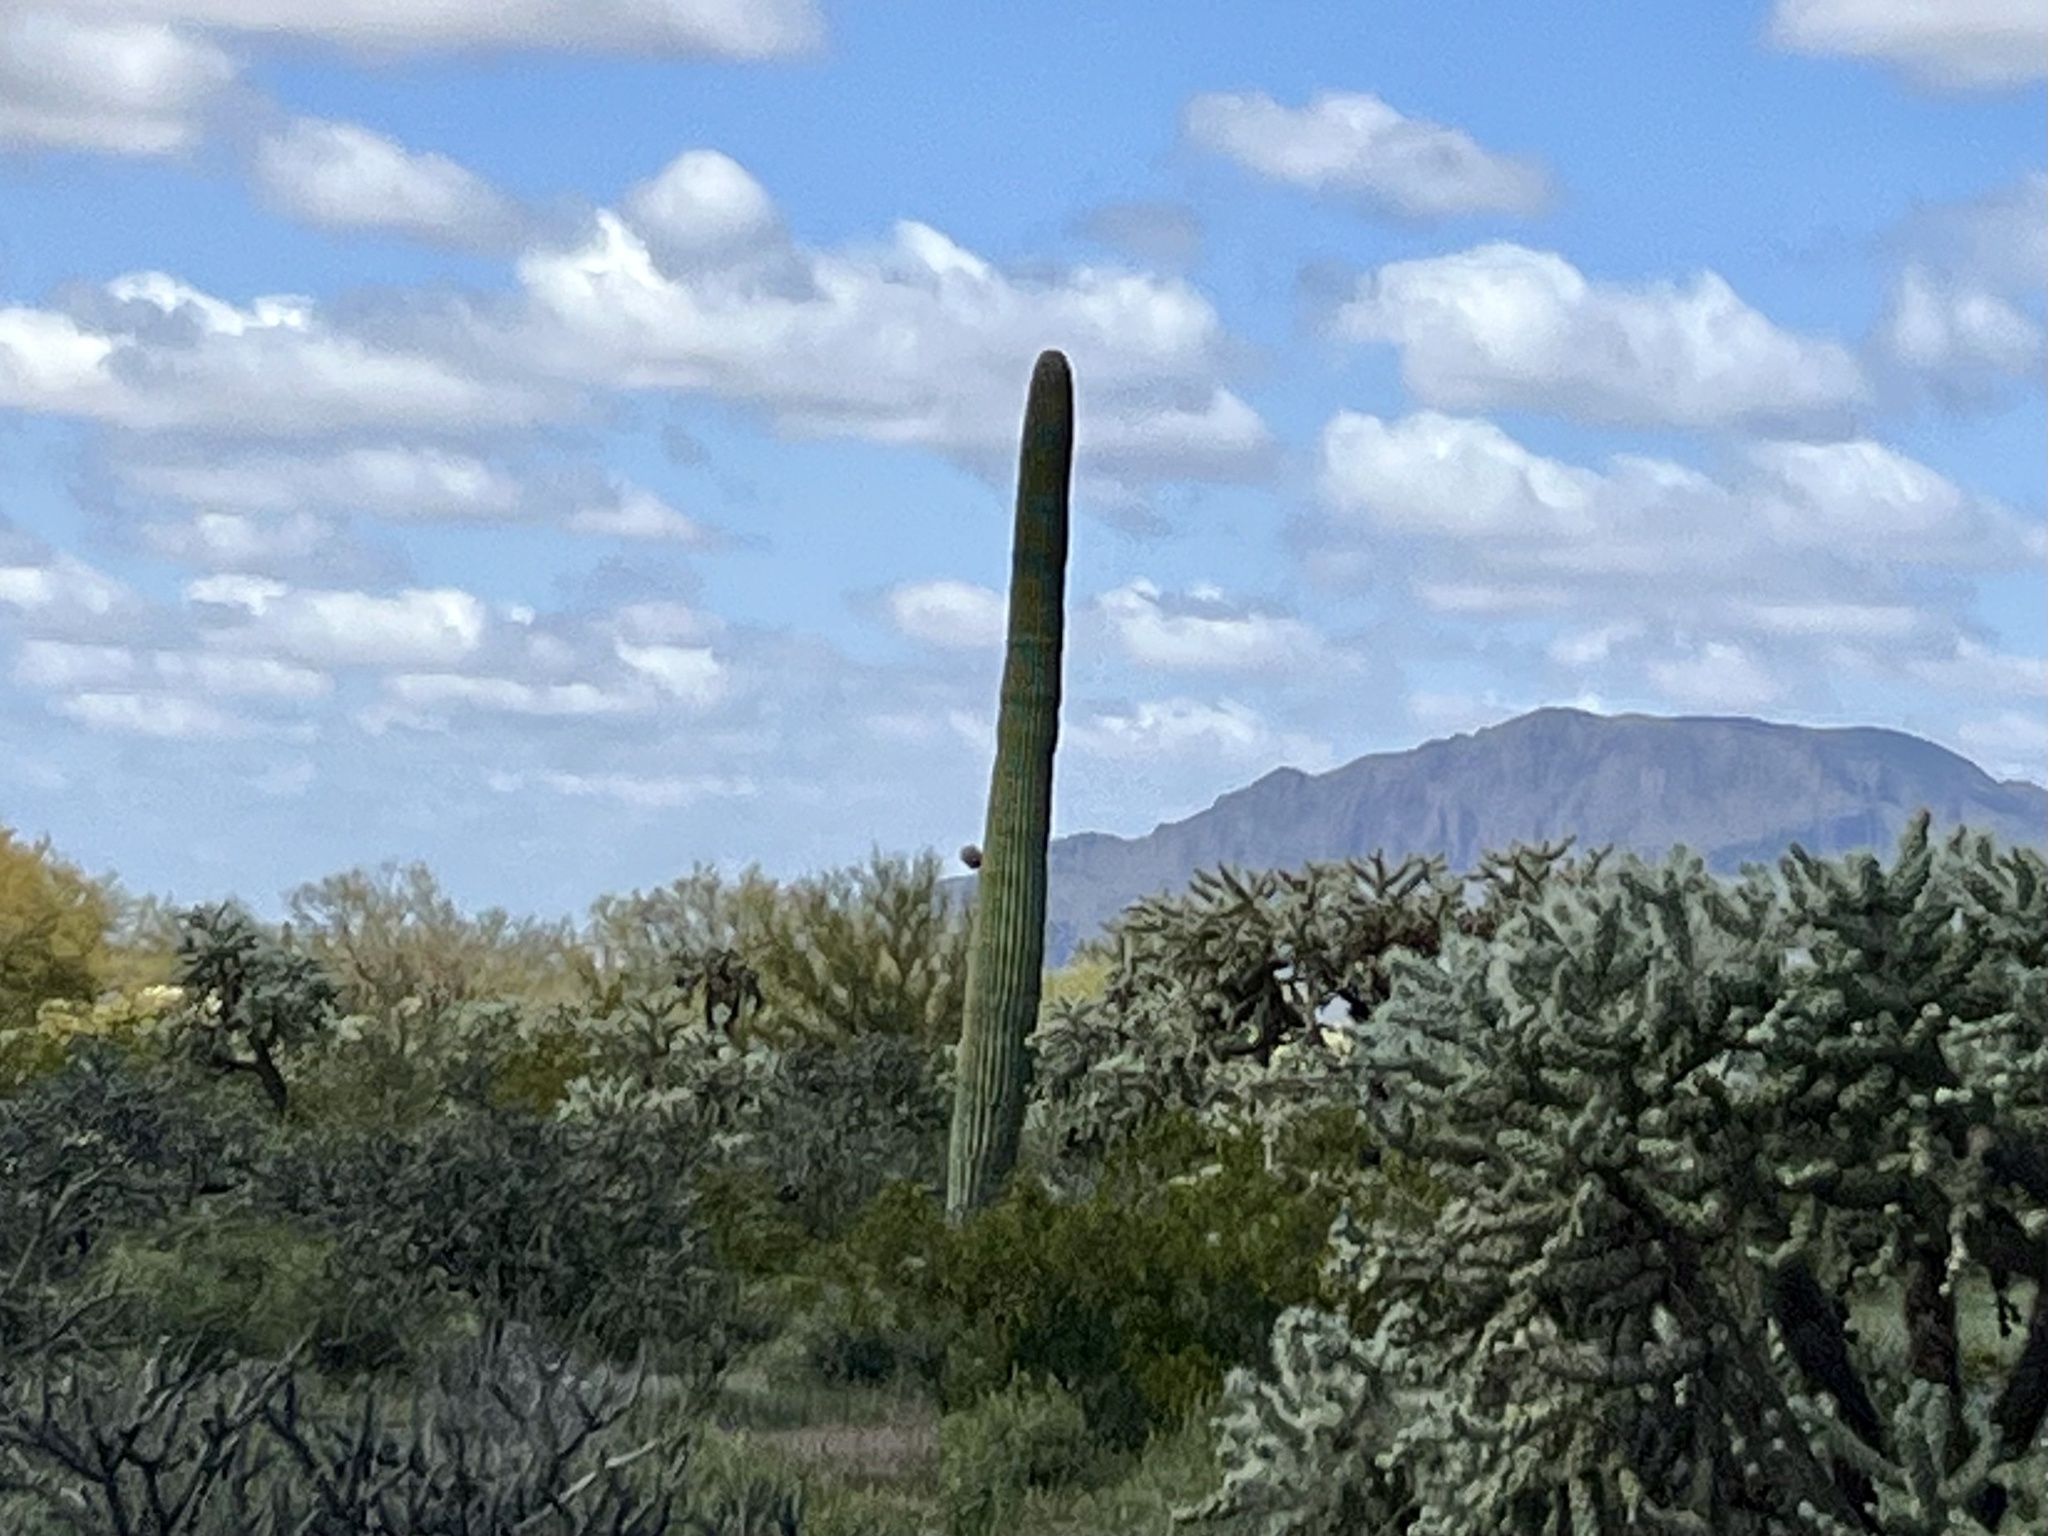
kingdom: Plantae
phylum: Tracheophyta
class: Magnoliopsida
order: Caryophyllales
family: Cactaceae
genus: Carnegiea
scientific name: Carnegiea gigantea
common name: Saguaro
